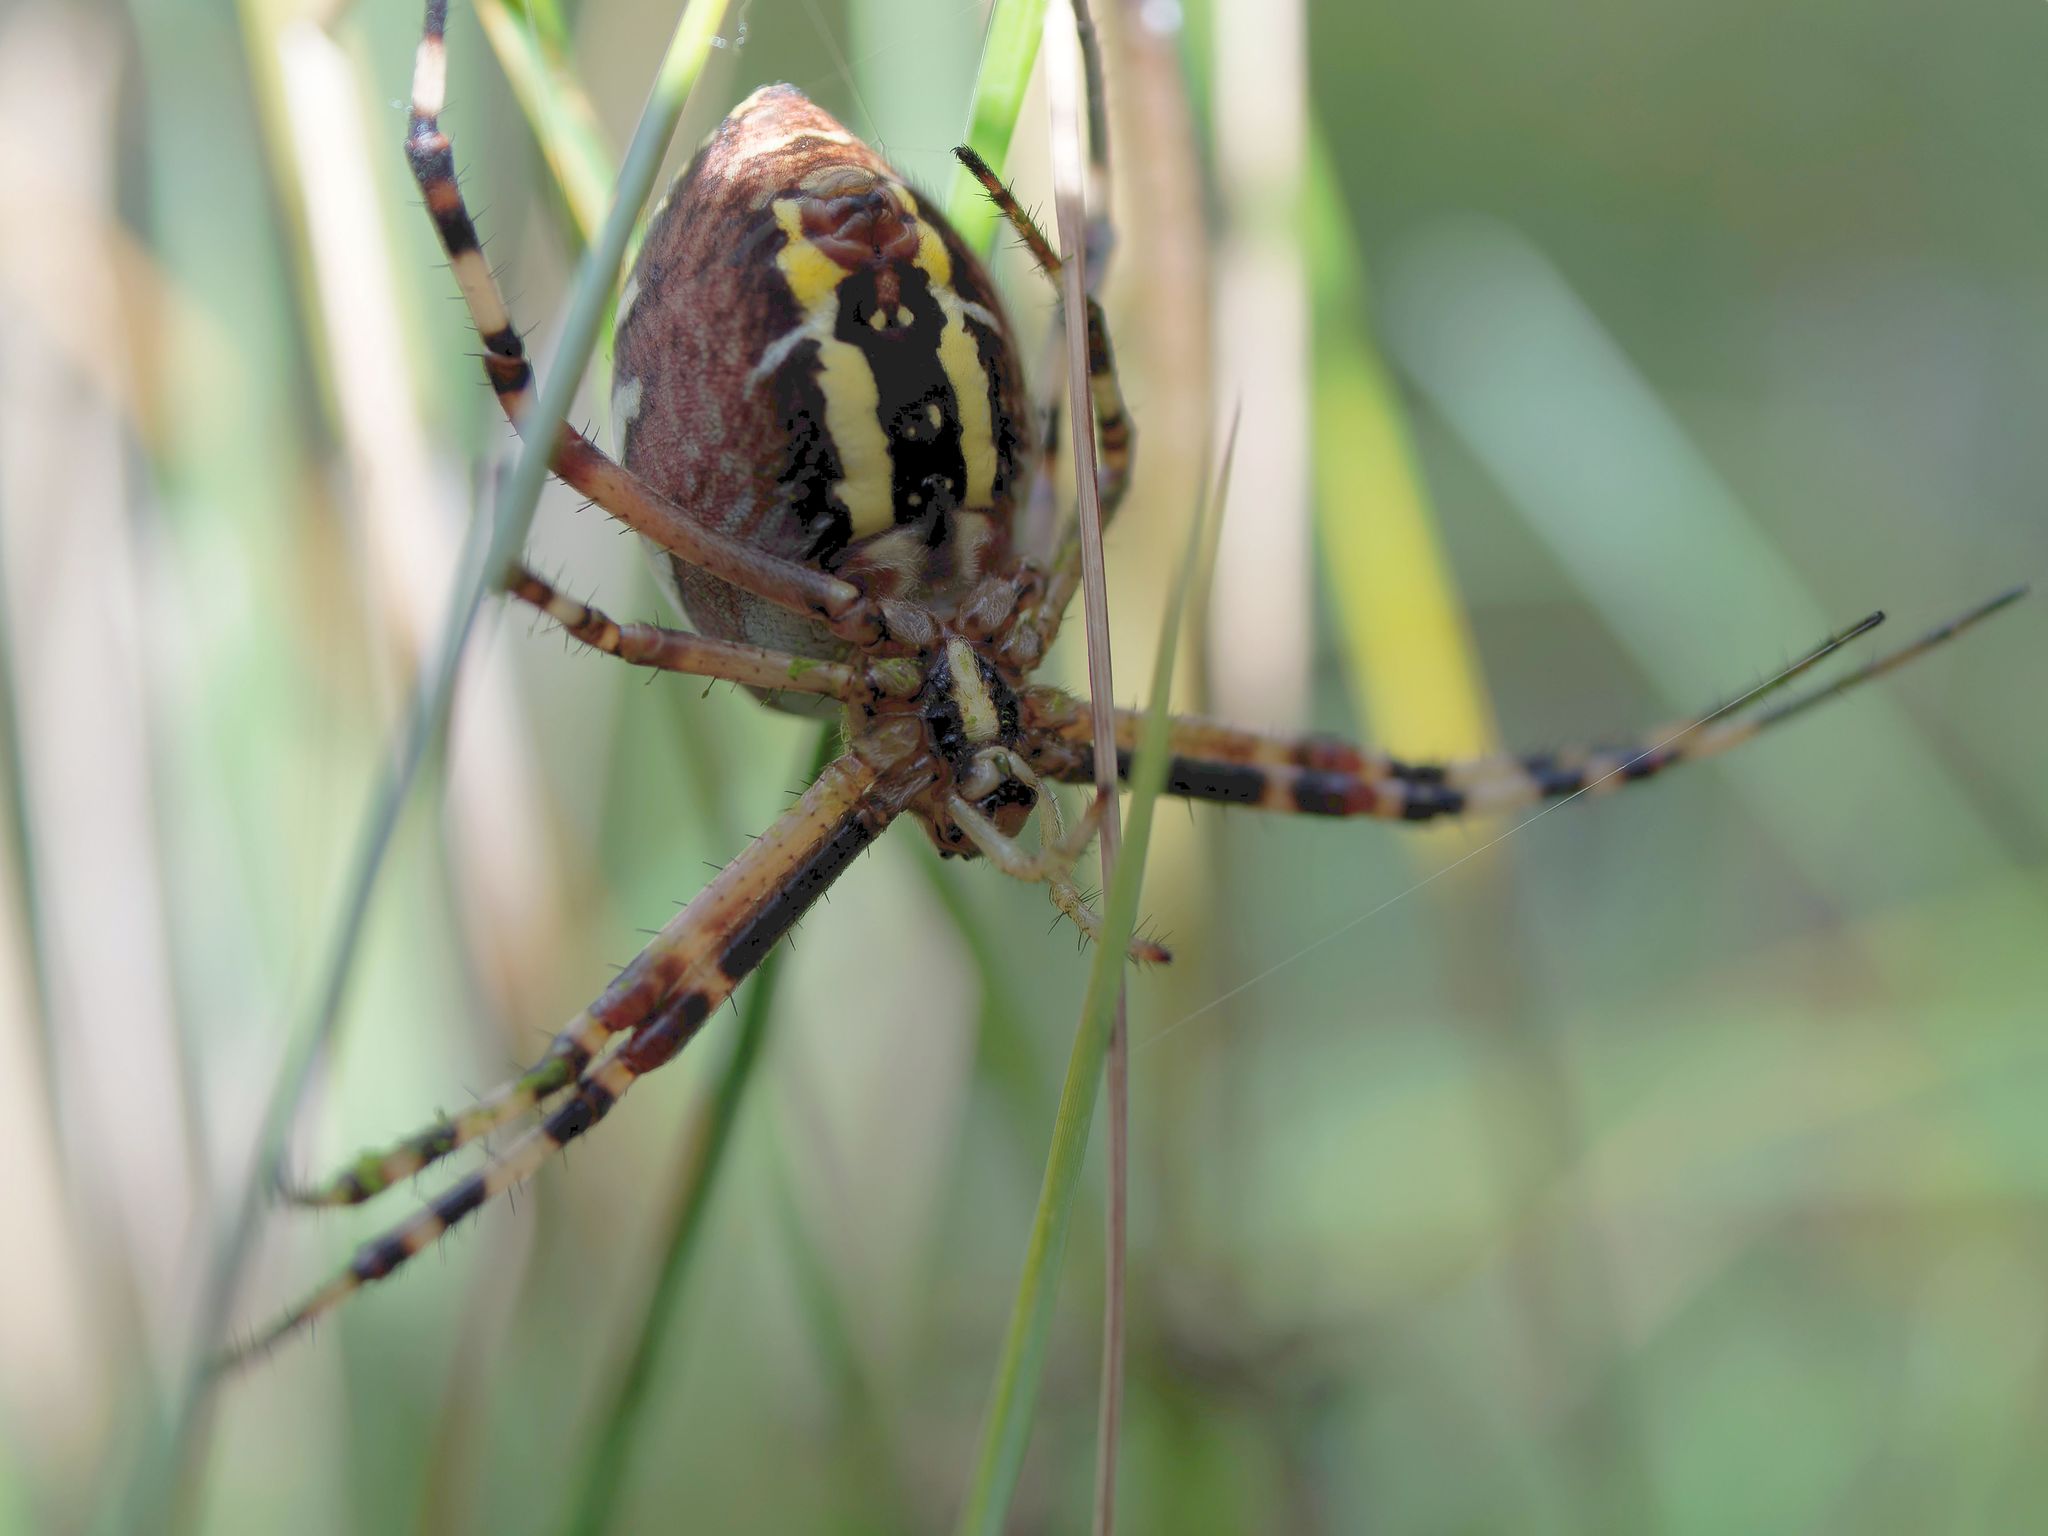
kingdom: Animalia
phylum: Arthropoda
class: Arachnida
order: Araneae
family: Araneidae
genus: Argiope
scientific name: Argiope bruennichi
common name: Wasp spider
